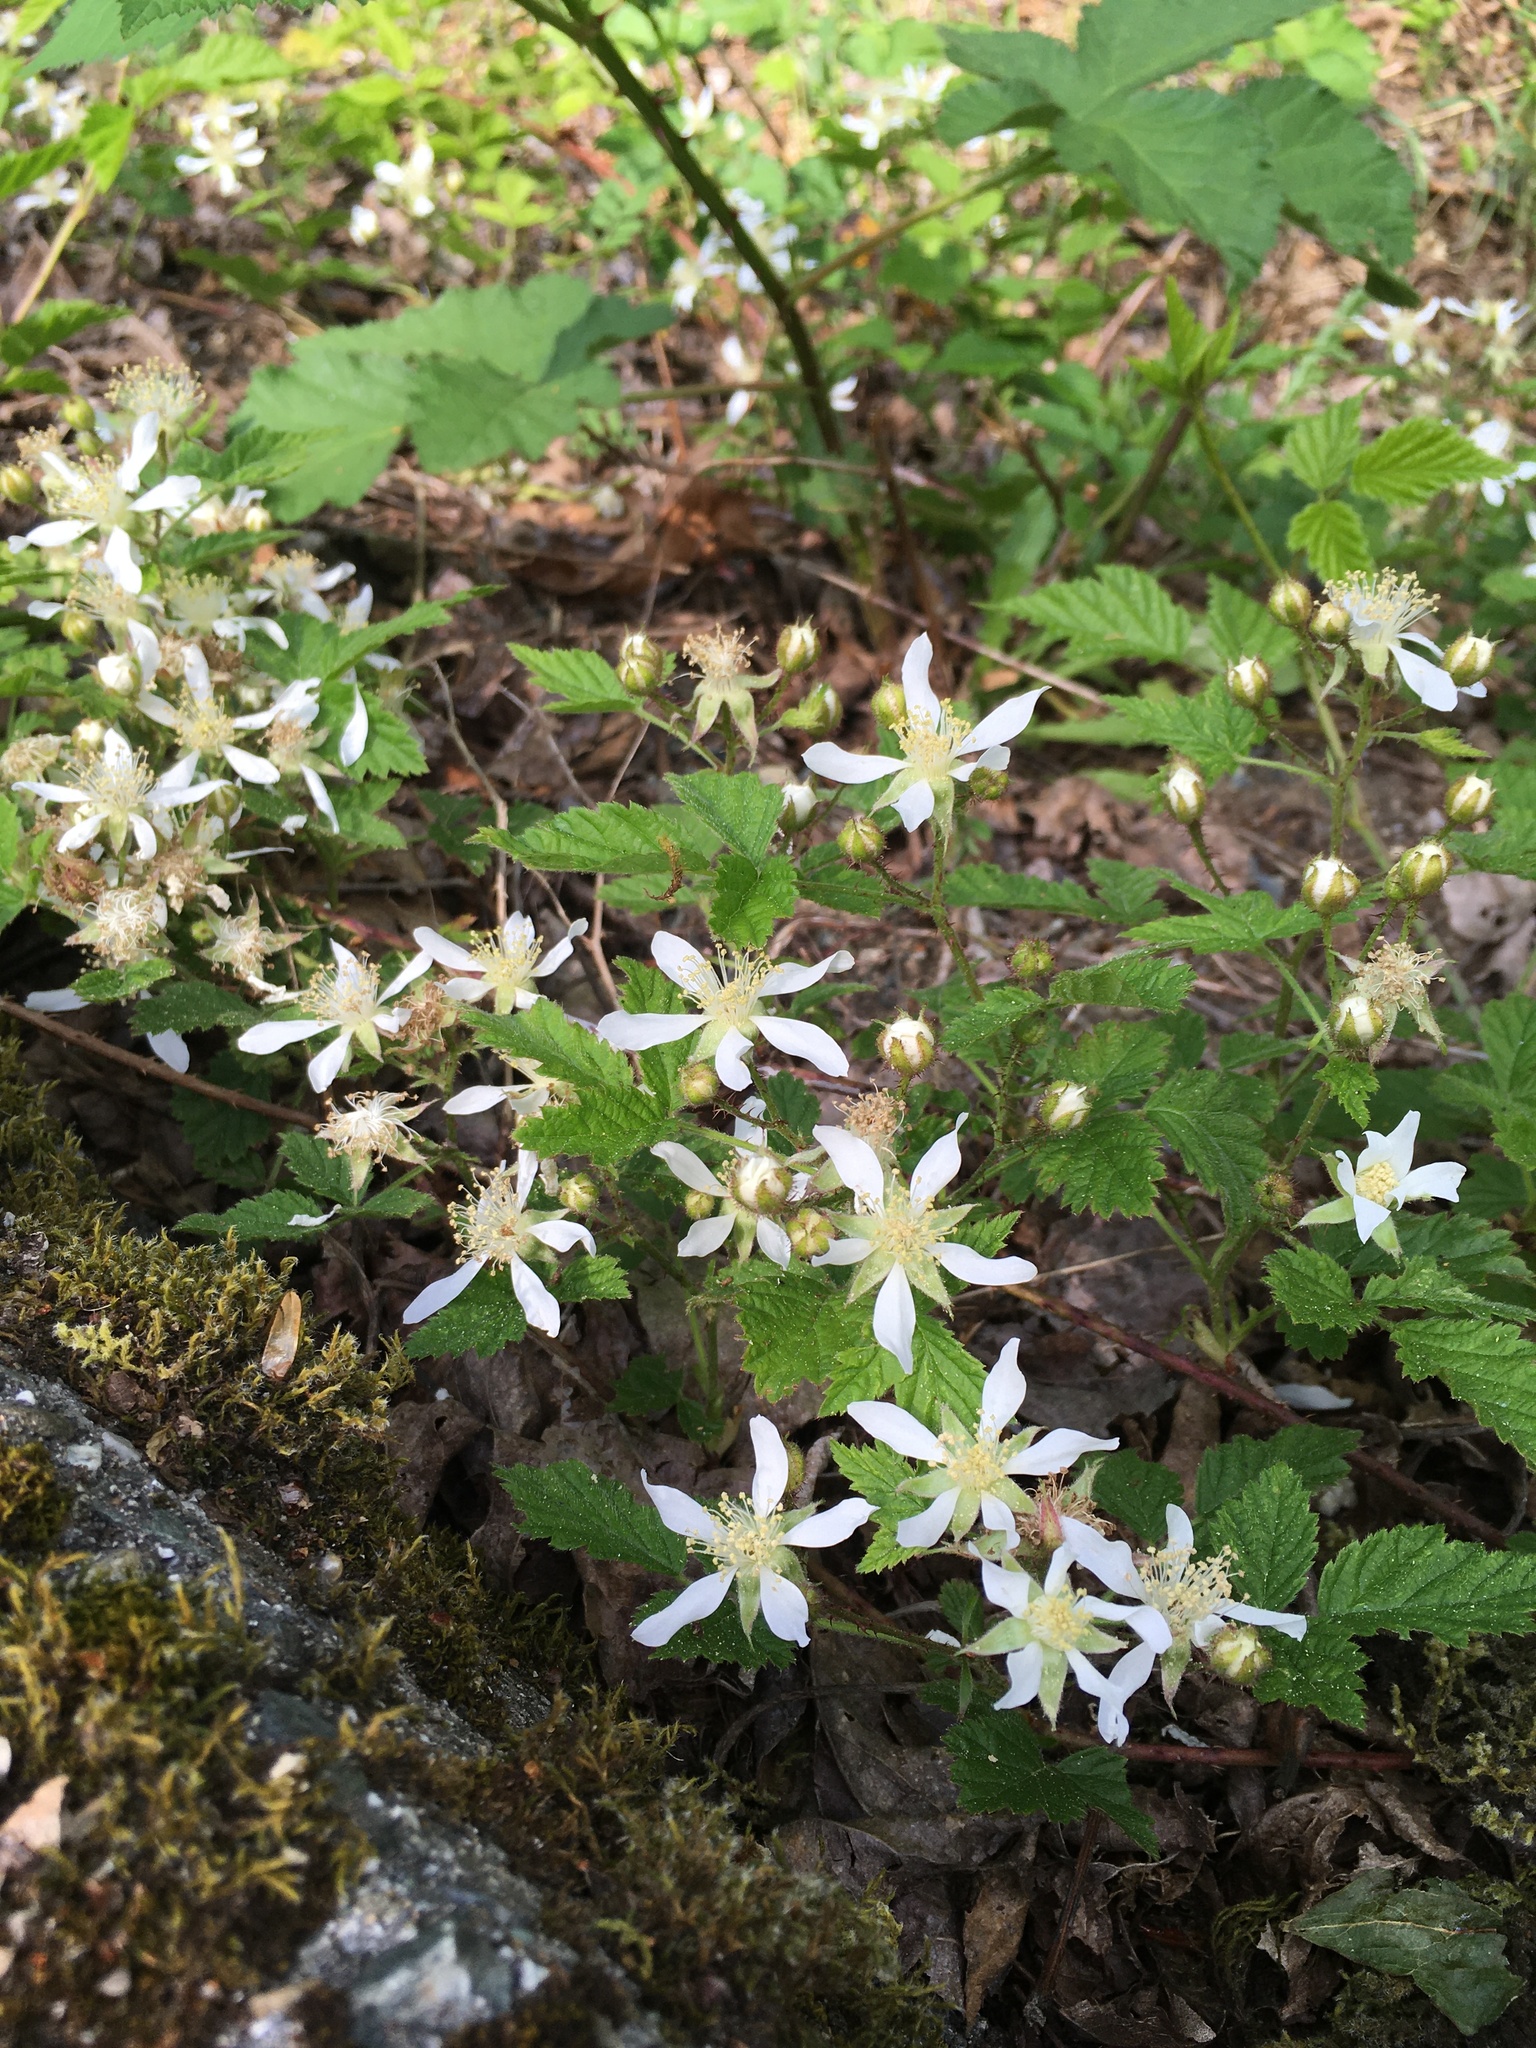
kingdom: Plantae
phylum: Tracheophyta
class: Magnoliopsida
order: Rosales
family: Rosaceae
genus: Rubus
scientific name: Rubus ursinus
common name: Pacific blackberry
